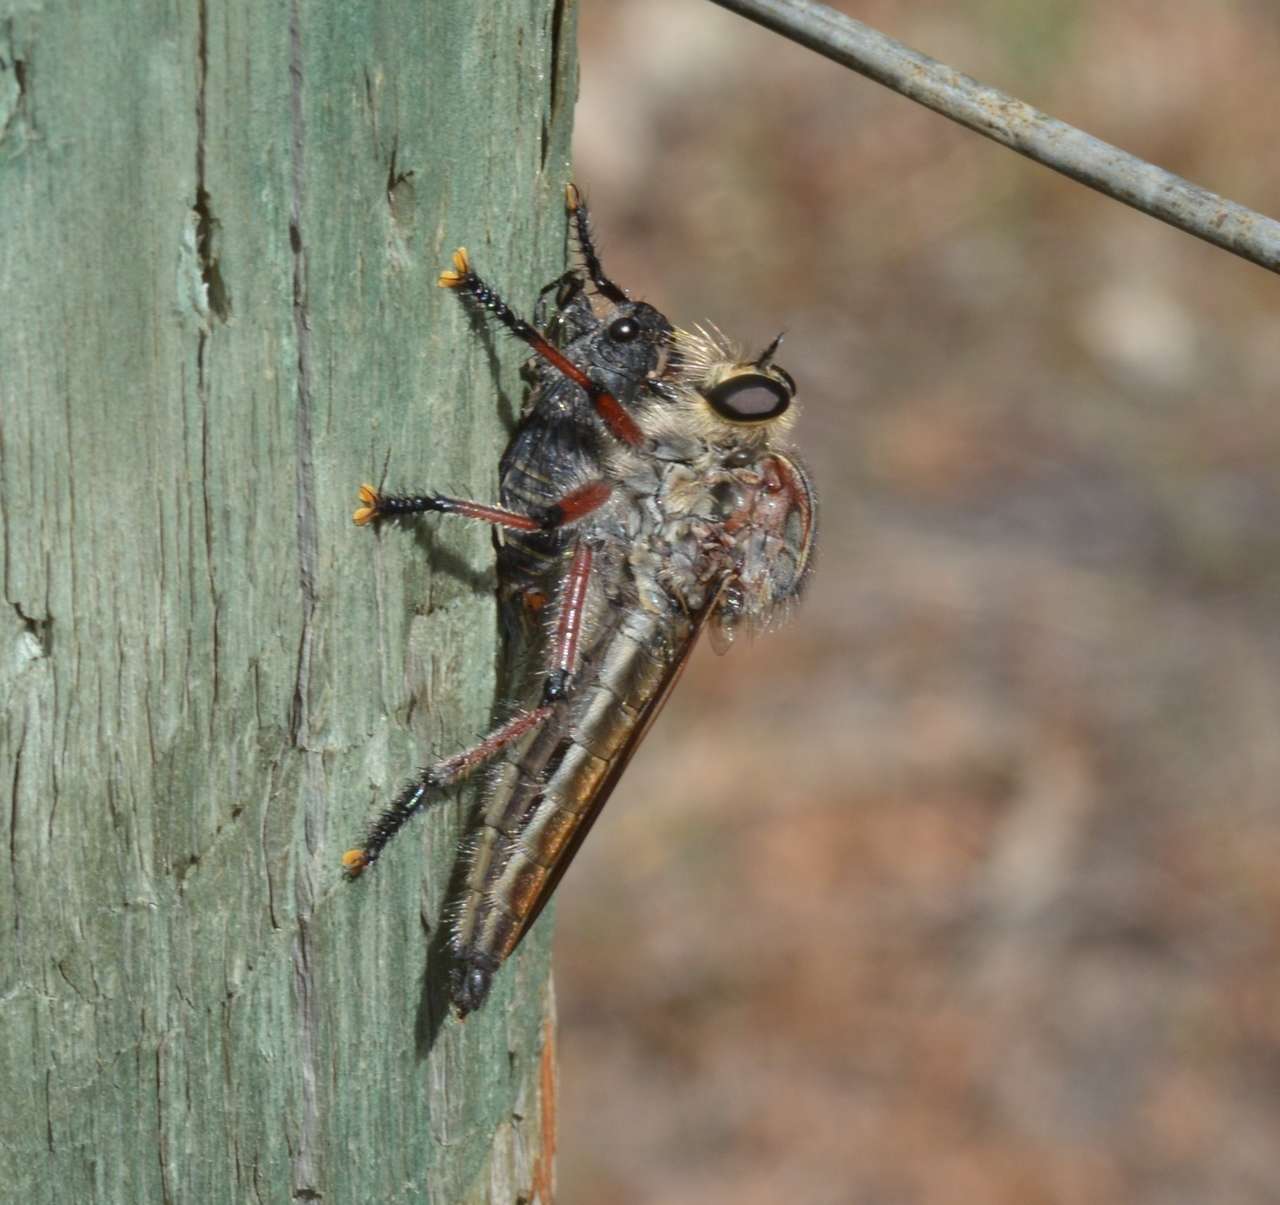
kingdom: Animalia
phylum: Arthropoda
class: Insecta
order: Diptera
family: Asilidae
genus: Neoaratus
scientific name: Neoaratus hercules
